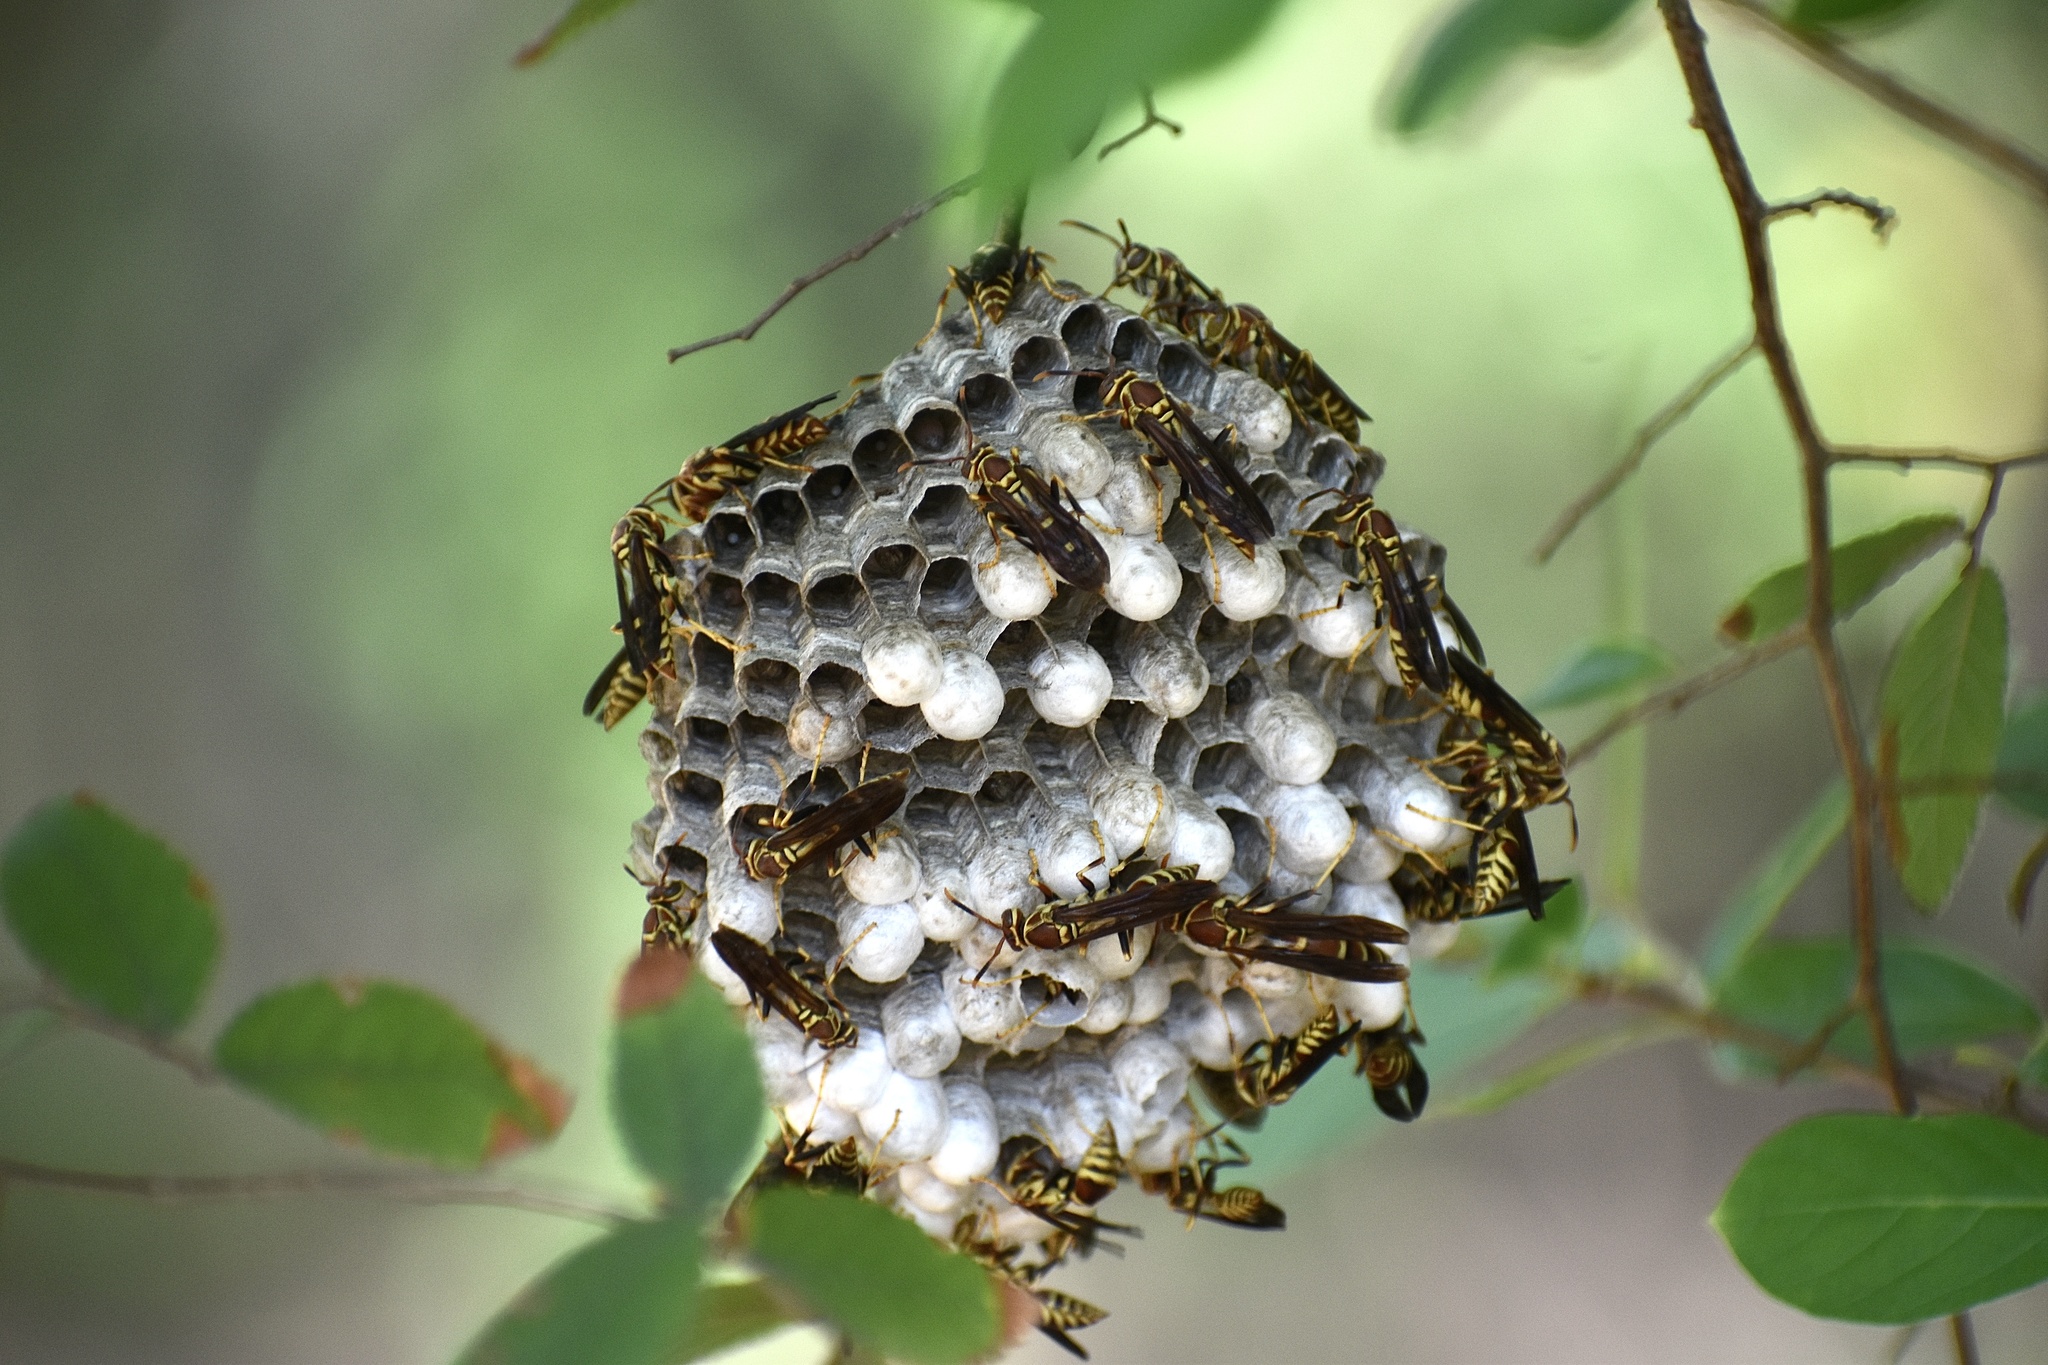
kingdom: Animalia
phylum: Arthropoda
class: Insecta
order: Hymenoptera
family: Eumenidae
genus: Polistes
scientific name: Polistes exclamans
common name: Paper wasp
